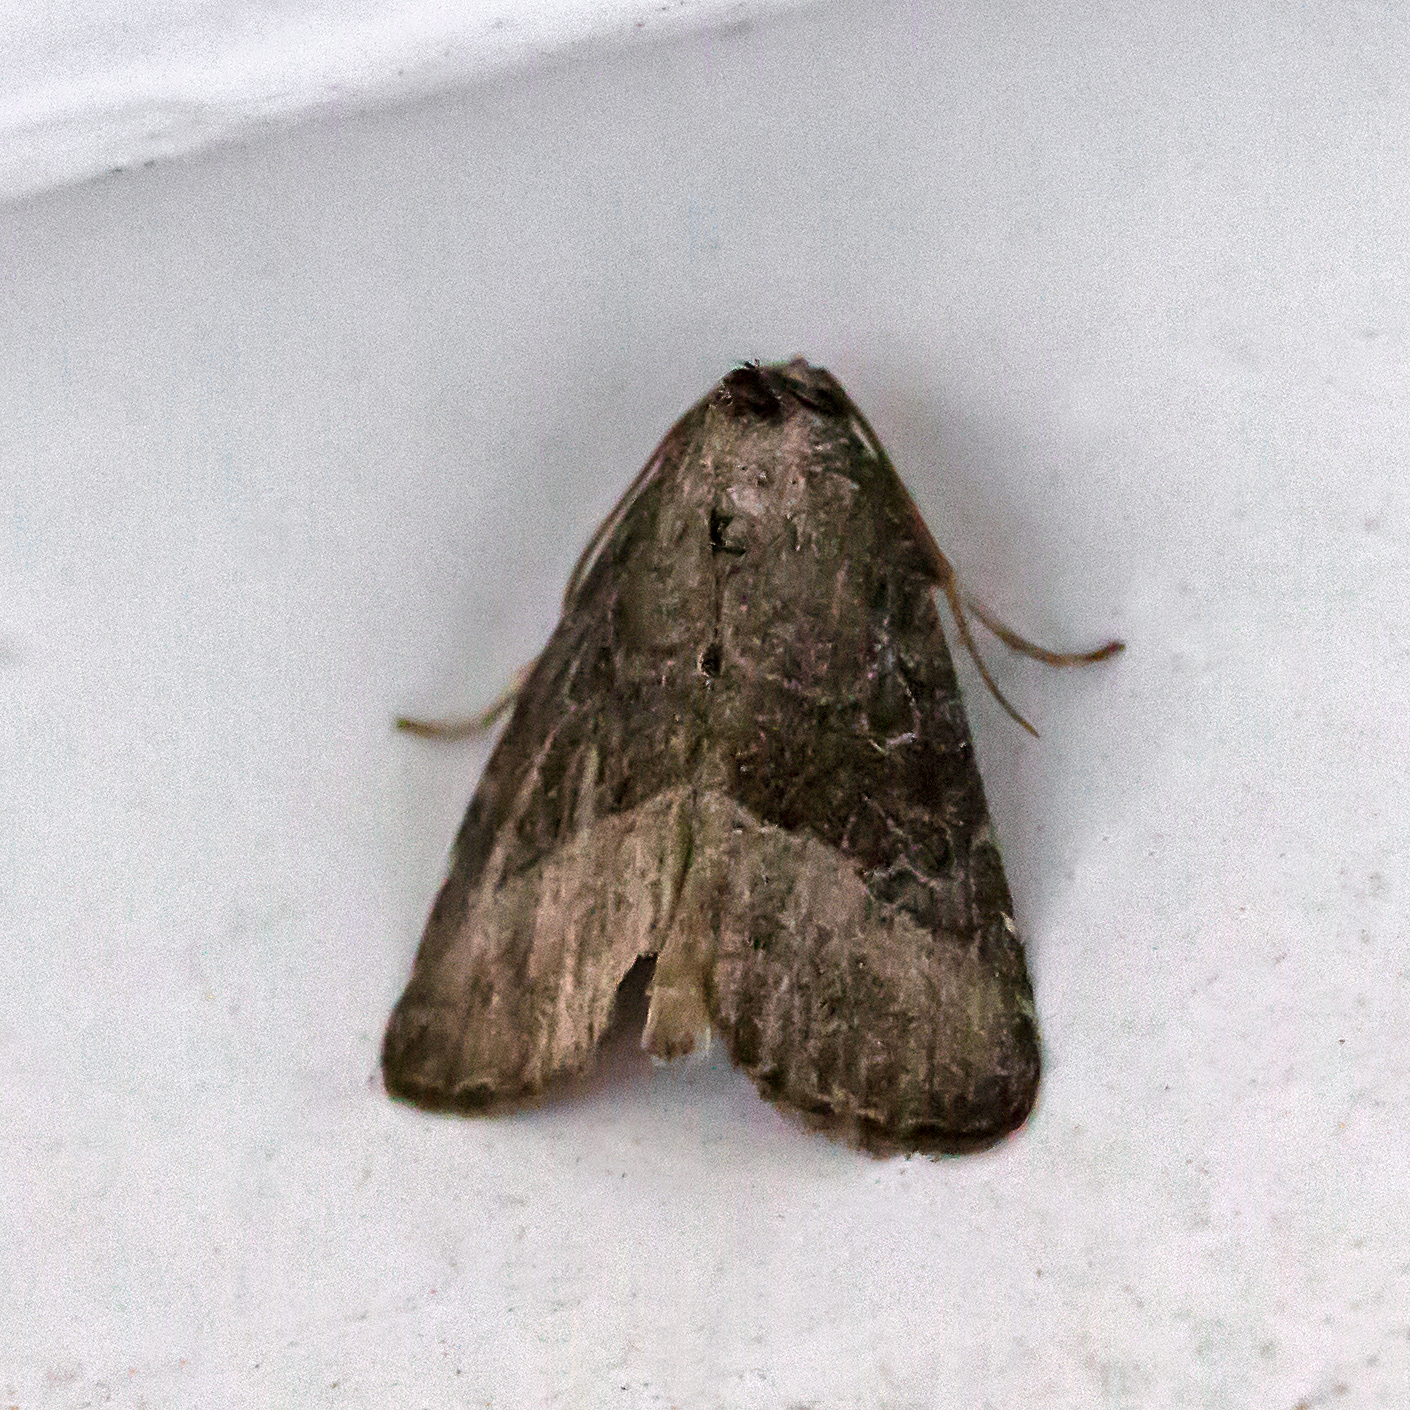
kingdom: Animalia
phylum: Arthropoda
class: Insecta
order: Lepidoptera
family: Noctuidae
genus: Ogdoconta
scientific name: Ogdoconta cinereola
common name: Common pinkband
